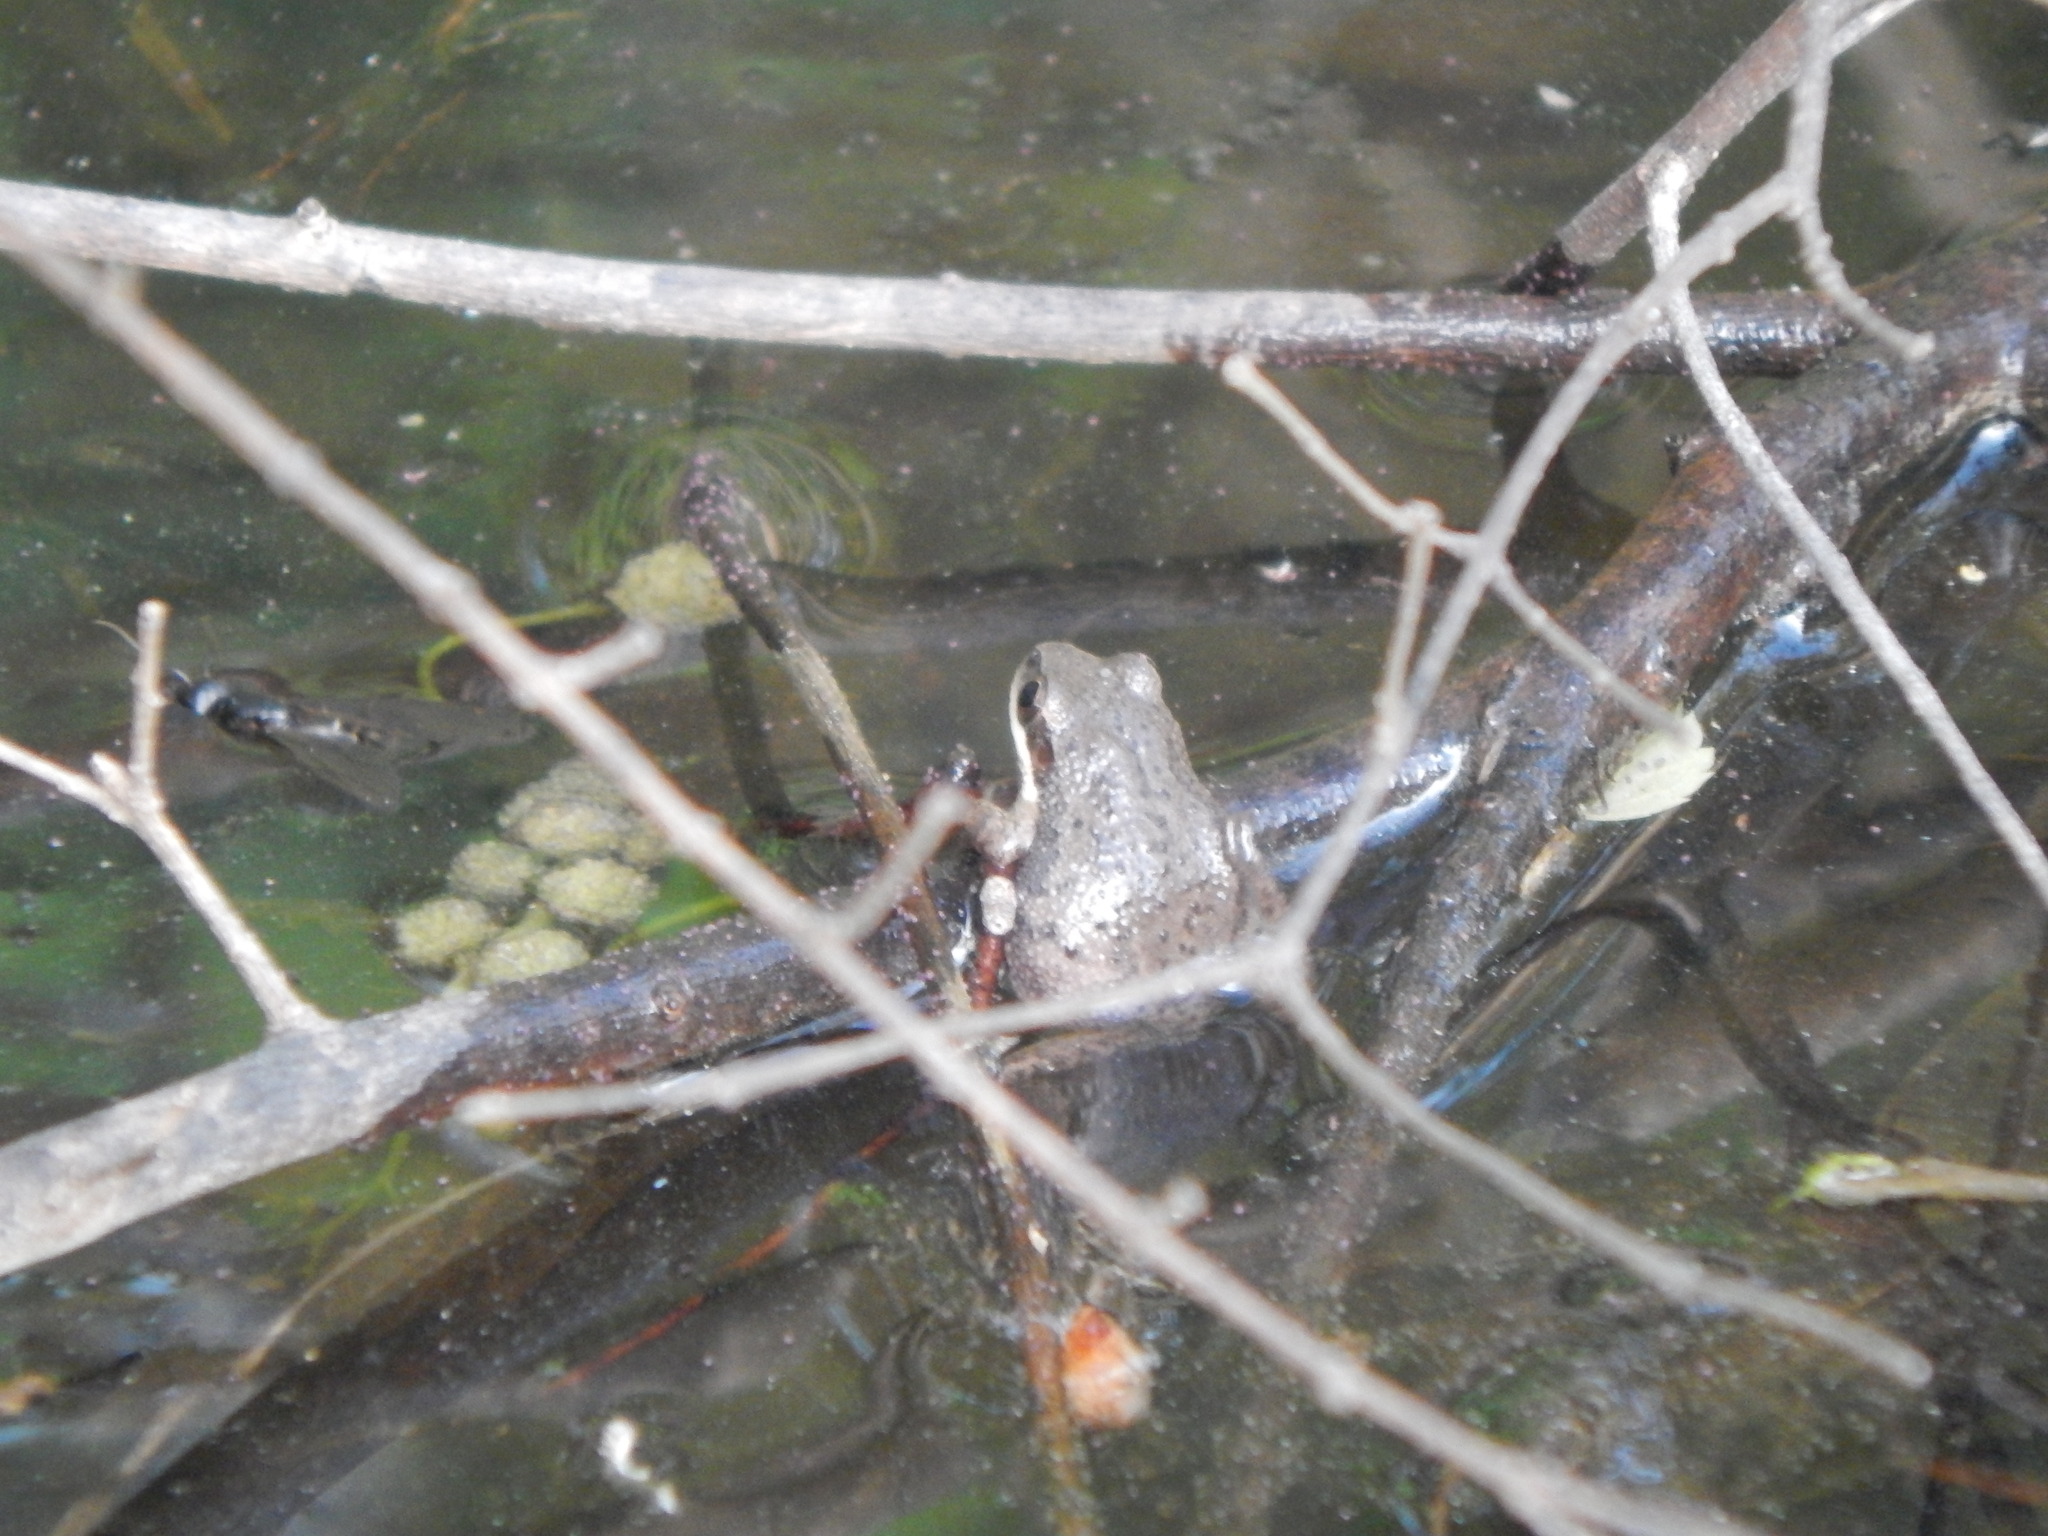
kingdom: Animalia
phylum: Chordata
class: Amphibia
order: Anura
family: Hylidae
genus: Pseudacris
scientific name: Pseudacris feriarum
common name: Upland chorus frog
